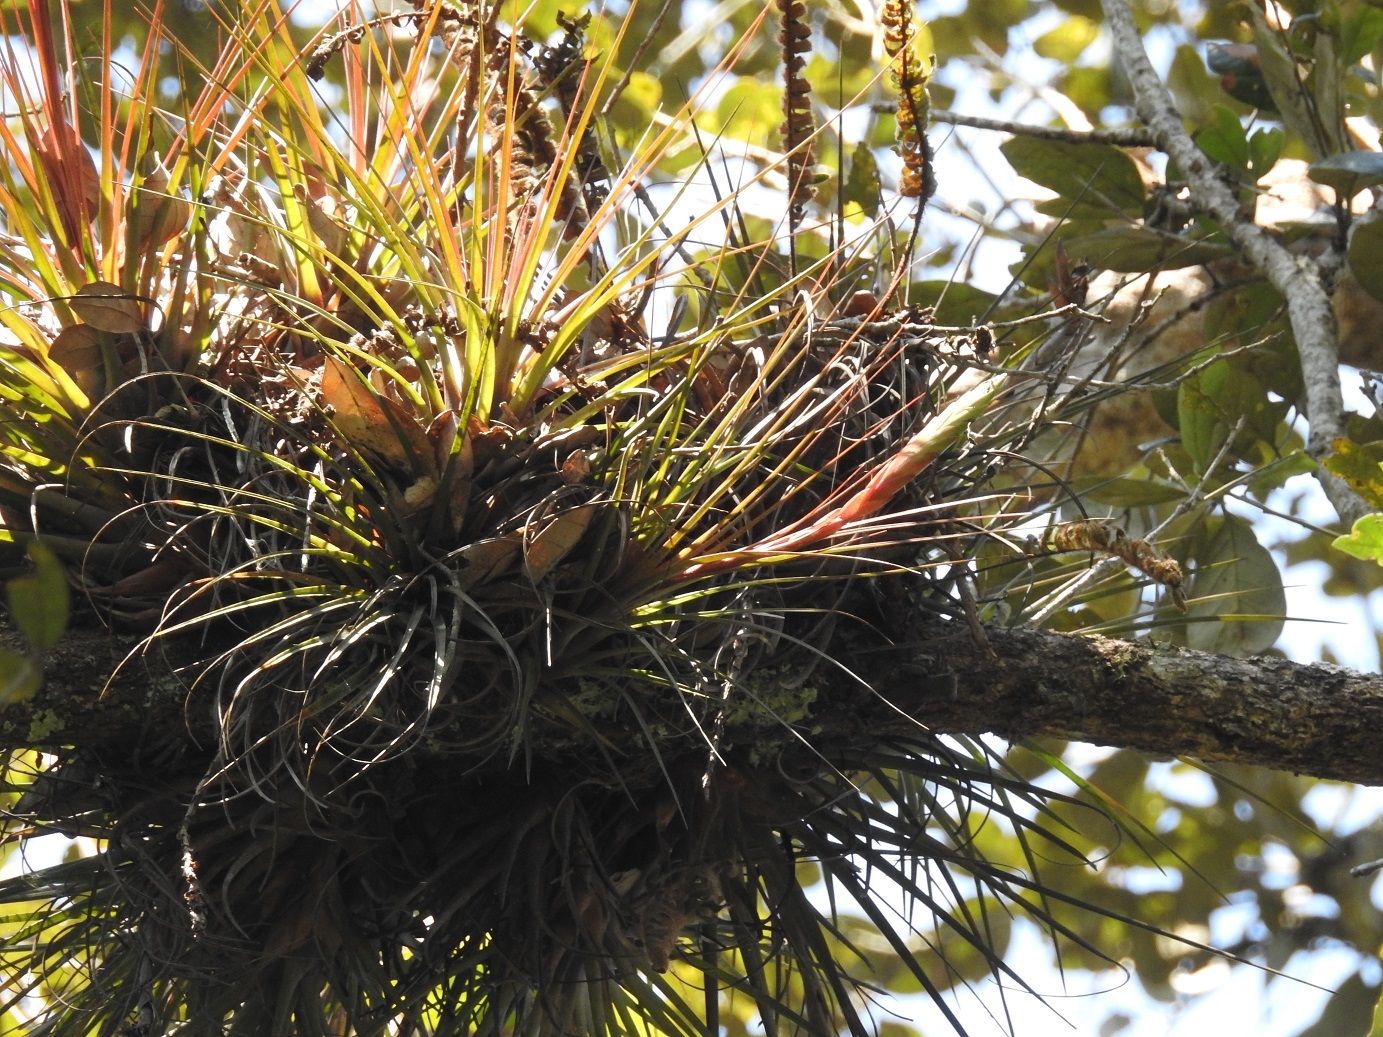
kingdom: Plantae
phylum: Tracheophyta
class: Liliopsida
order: Poales
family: Bromeliaceae
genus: Tillandsia
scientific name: Tillandsia punctulata
